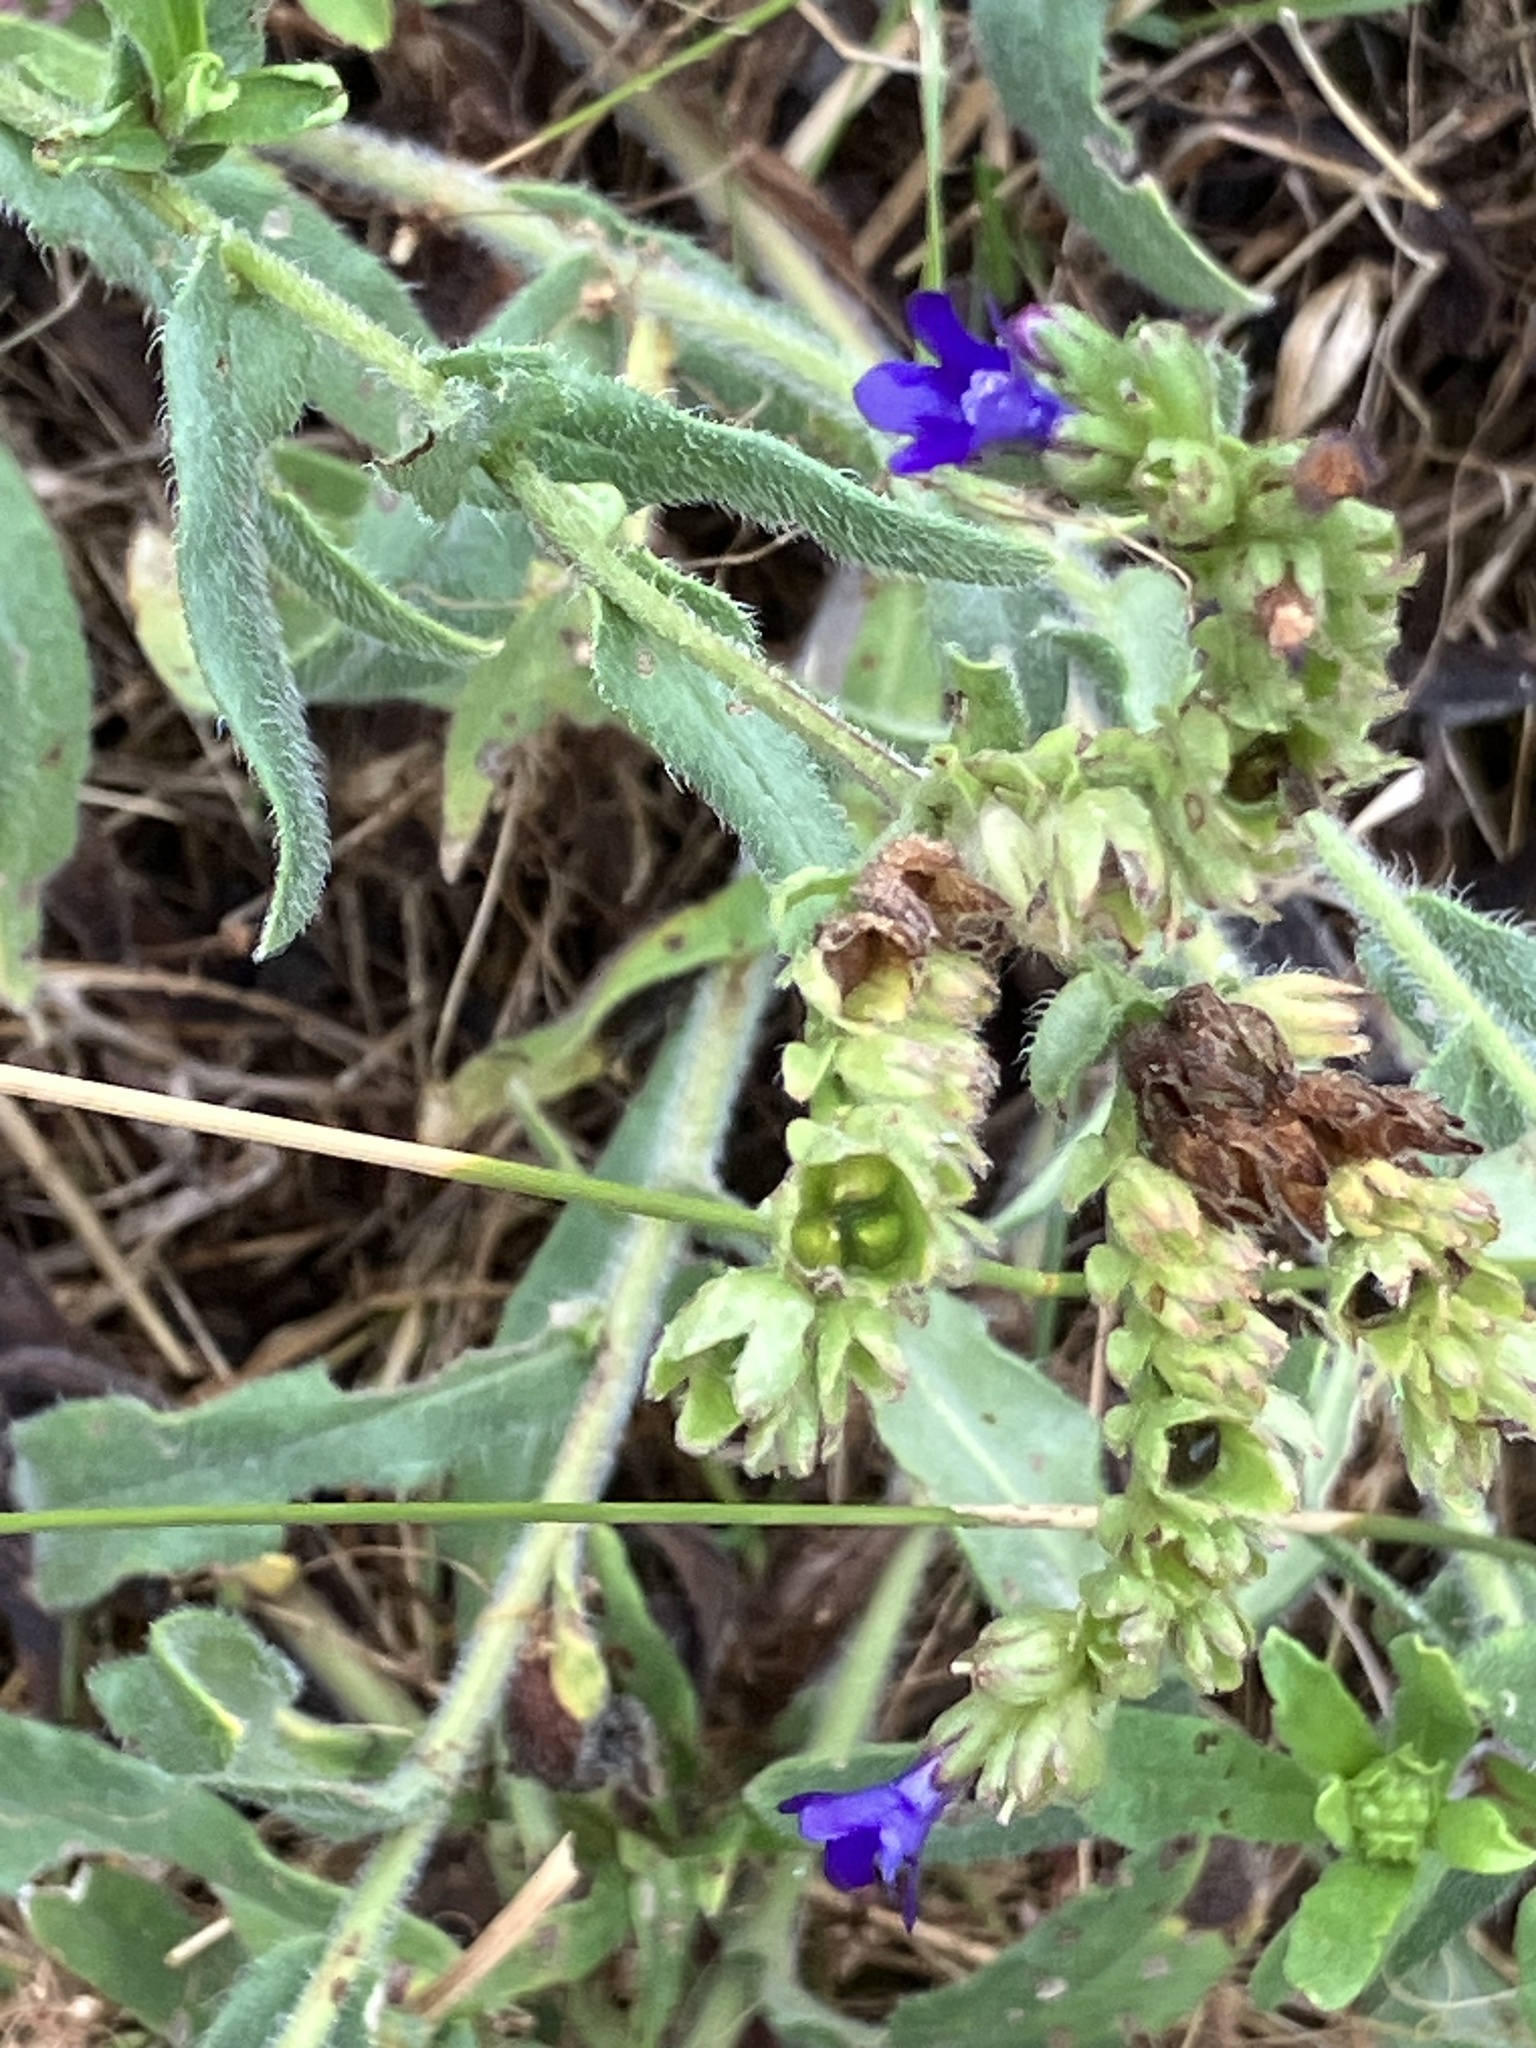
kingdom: Plantae
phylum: Tracheophyta
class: Magnoliopsida
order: Boraginales
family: Boraginaceae
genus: Anchusa
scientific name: Anchusa officinalis
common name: Alkanet
